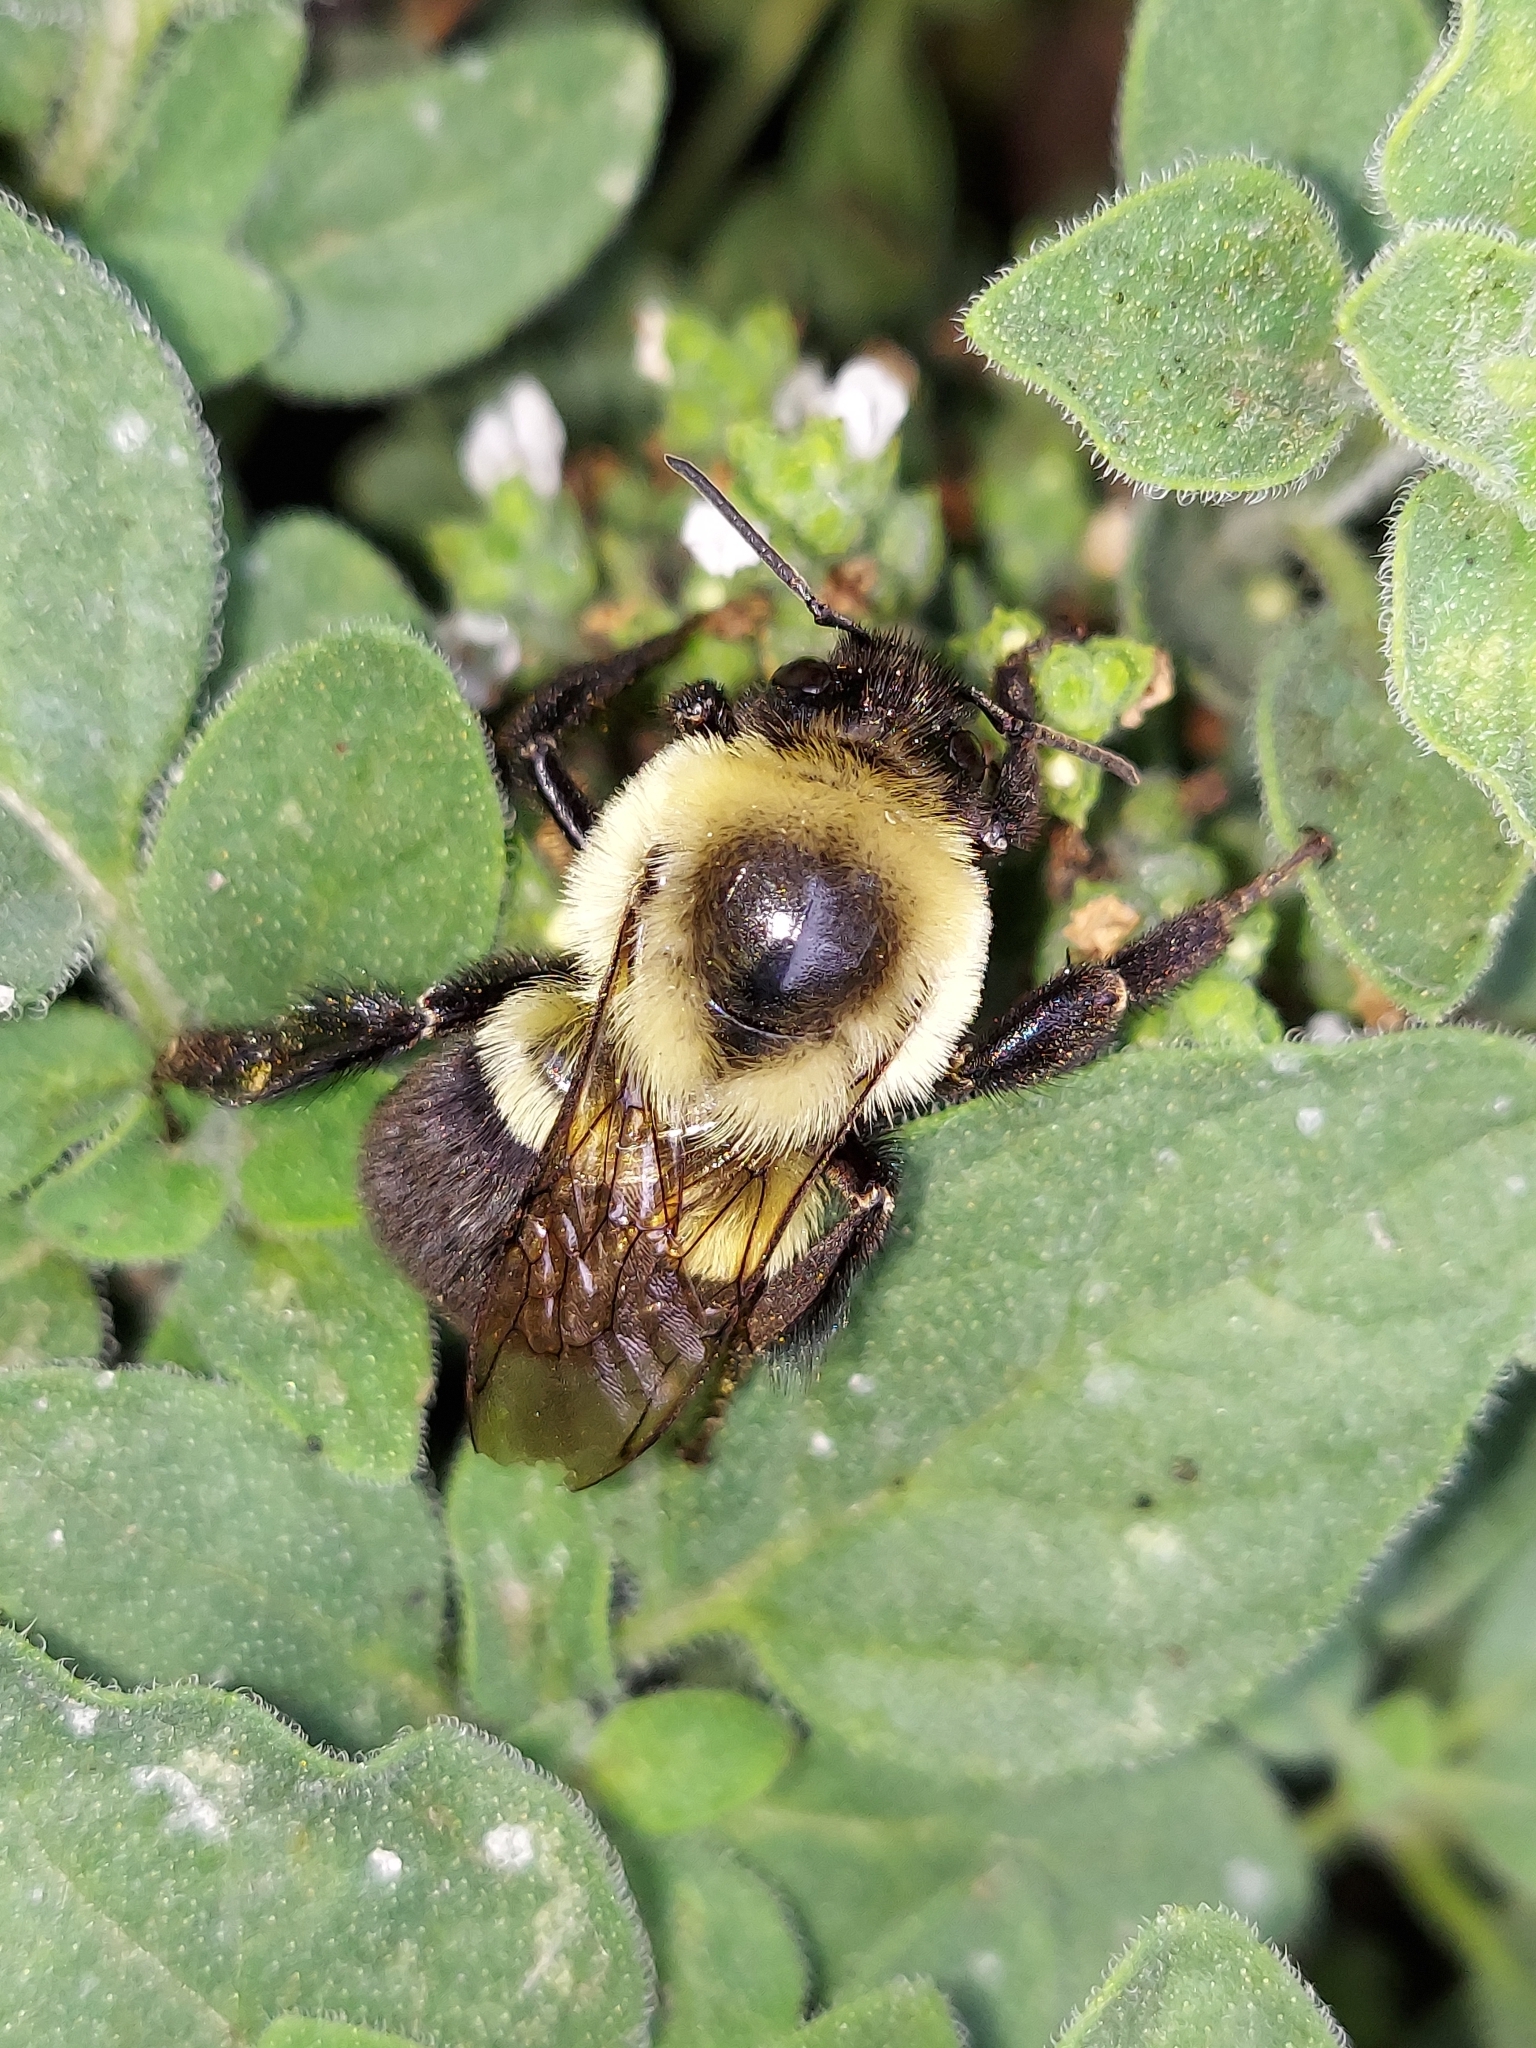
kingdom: Animalia
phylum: Arthropoda
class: Insecta
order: Hymenoptera
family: Apidae
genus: Bombus
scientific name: Bombus impatiens
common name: Common eastern bumble bee
